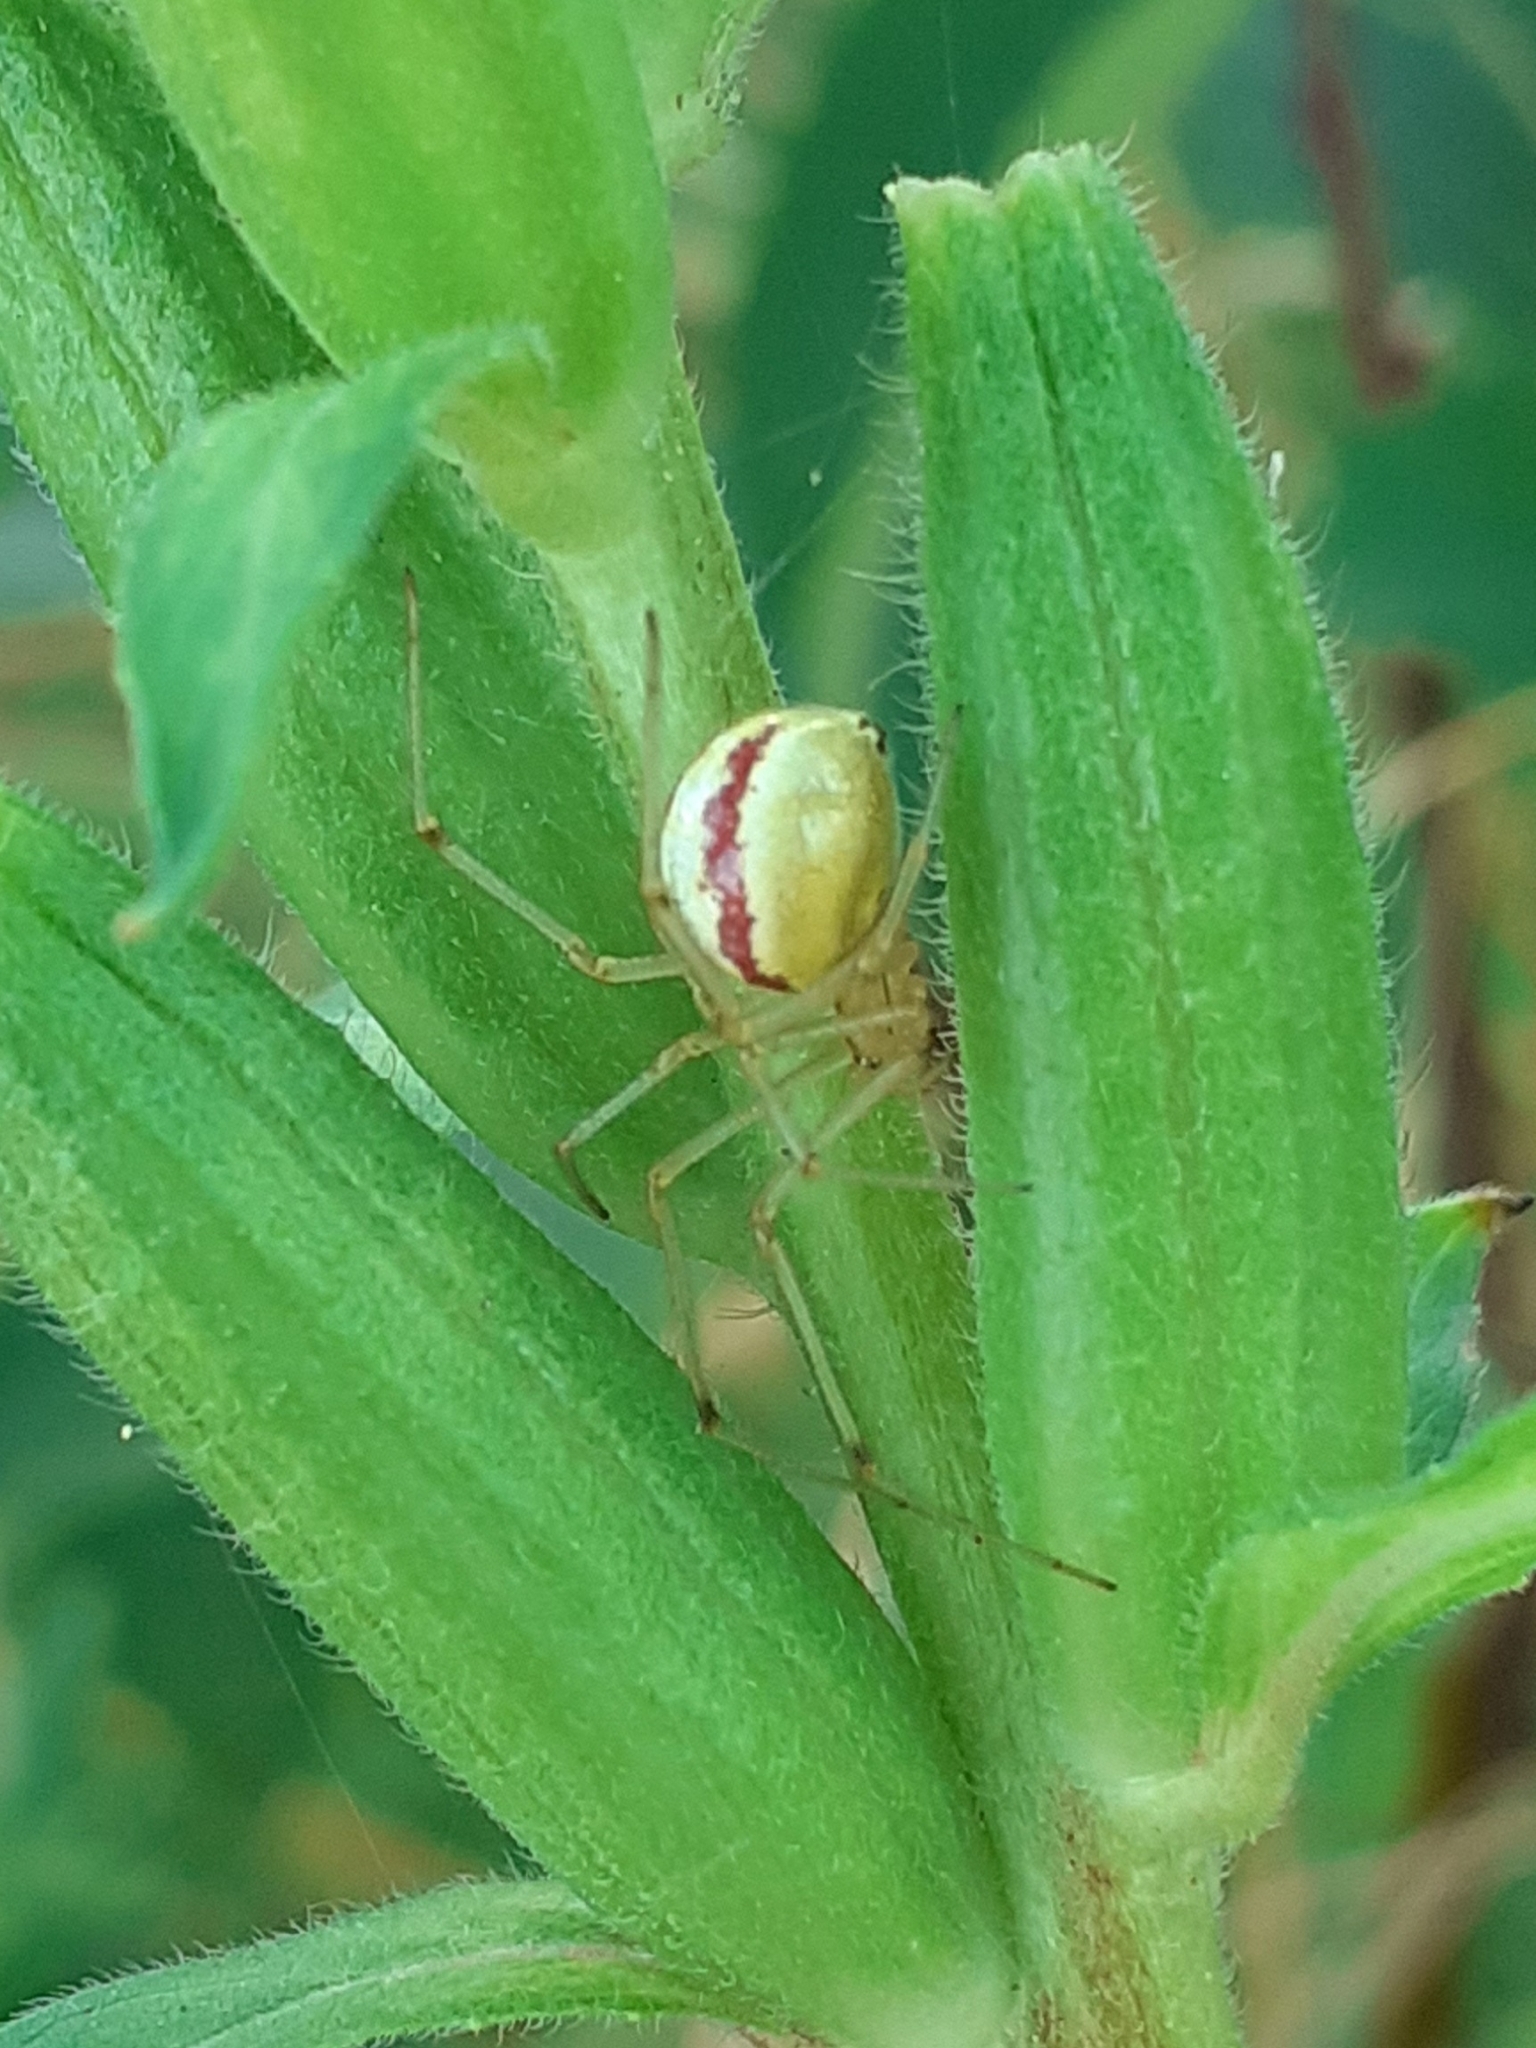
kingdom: Animalia
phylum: Arthropoda
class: Arachnida
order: Araneae
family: Theridiidae
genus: Enoplognatha
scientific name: Enoplognatha
